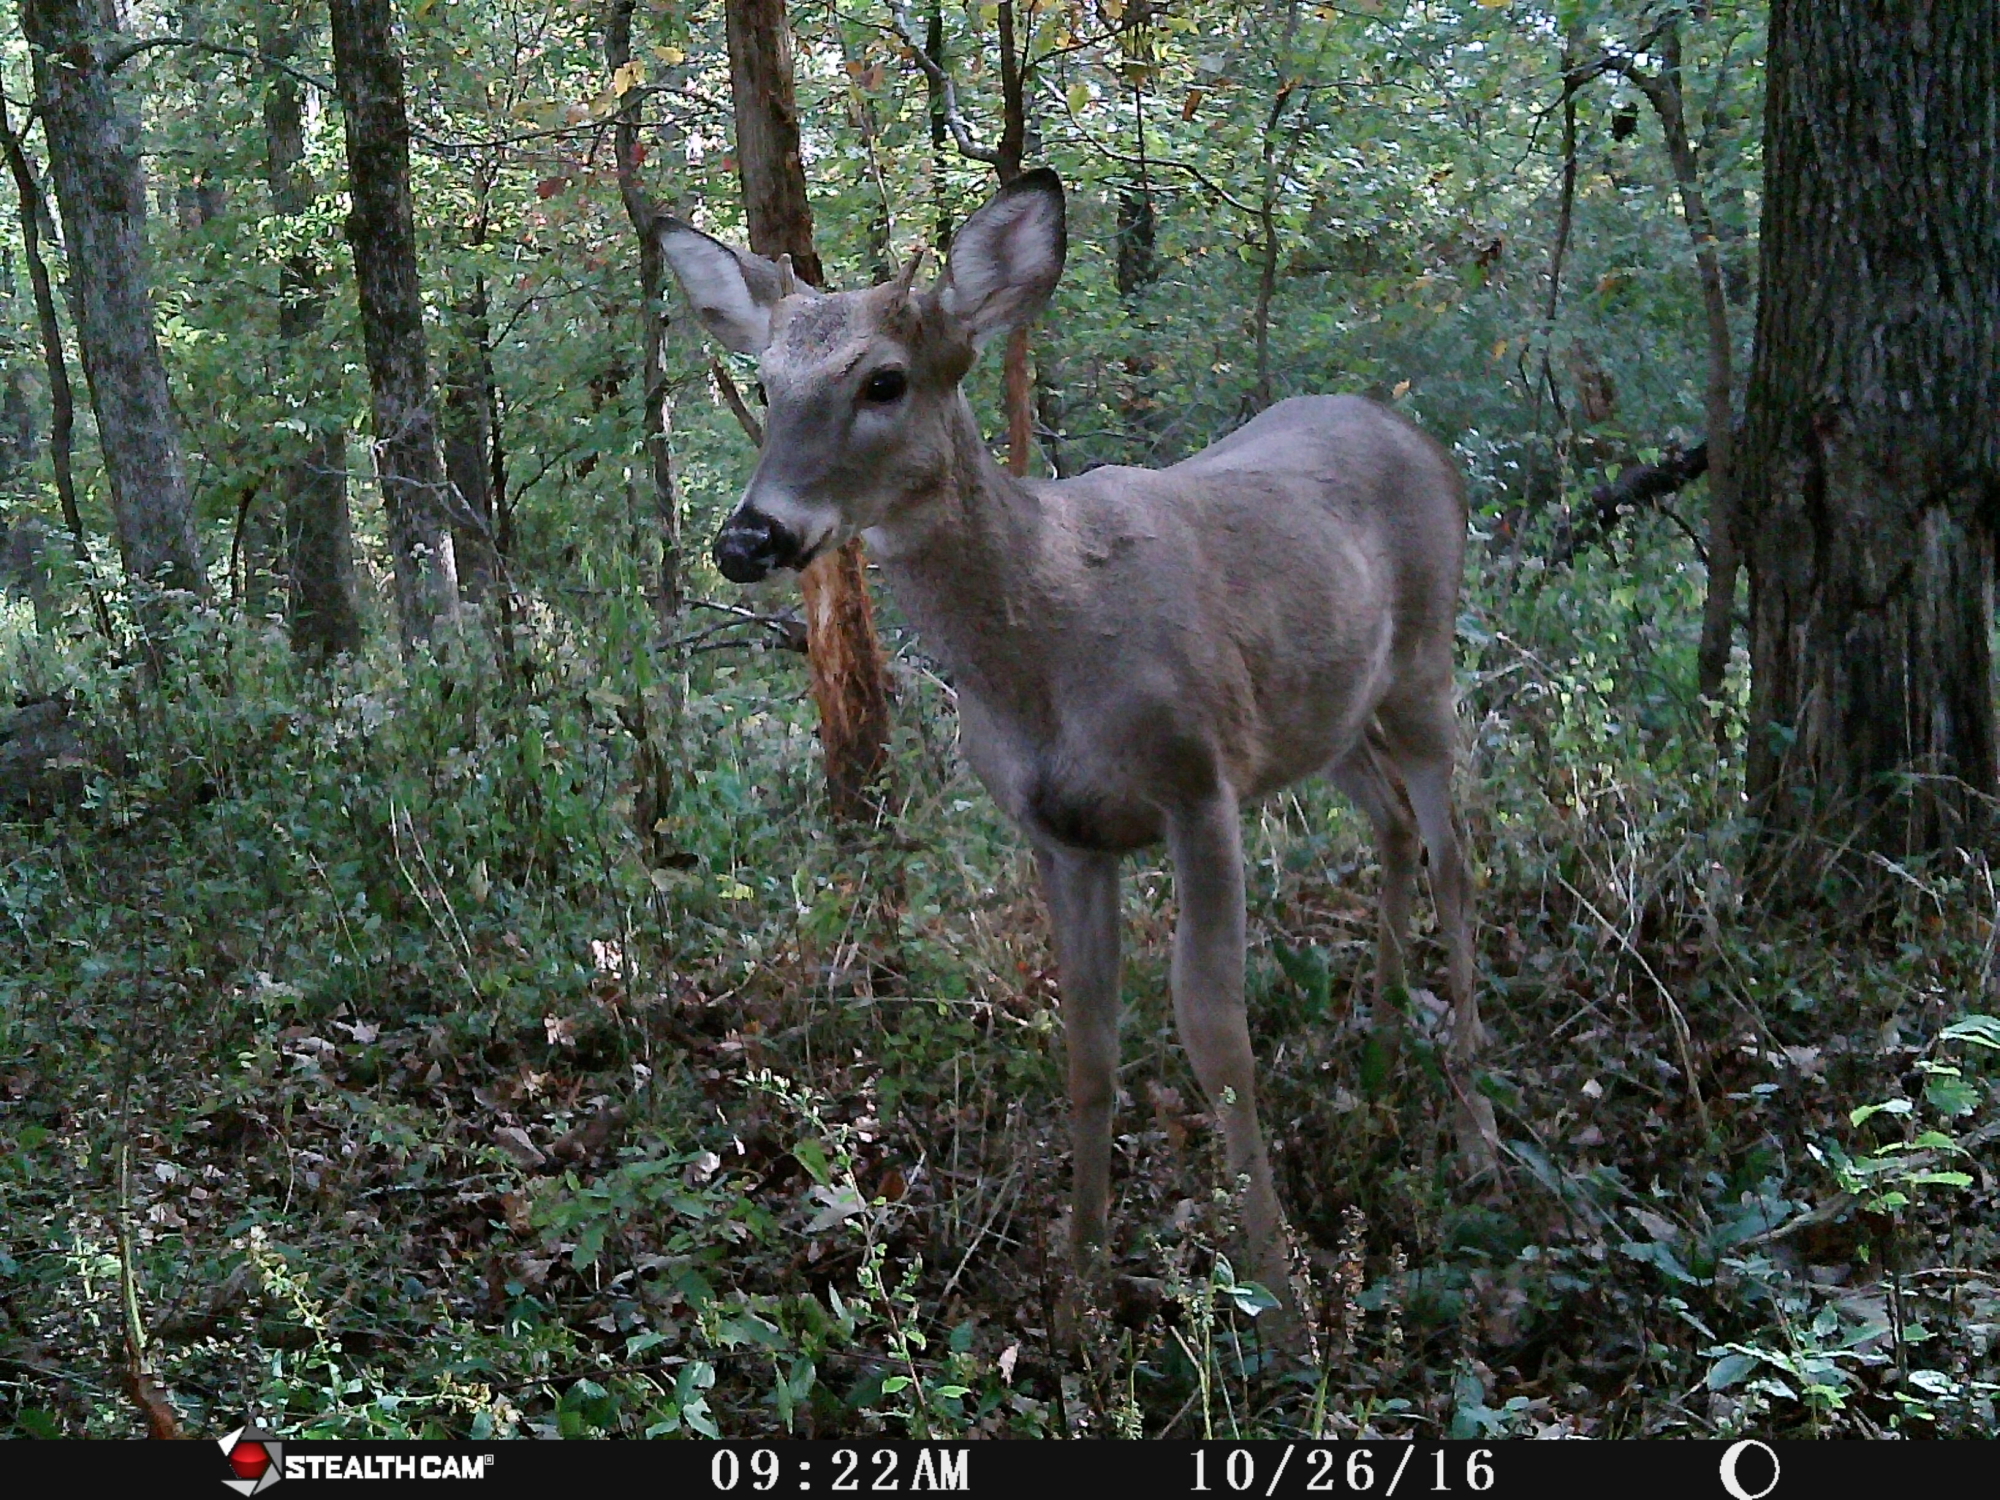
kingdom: Animalia
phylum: Chordata
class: Mammalia
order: Artiodactyla
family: Cervidae
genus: Odocoileus
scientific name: Odocoileus virginianus
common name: White-tailed deer
